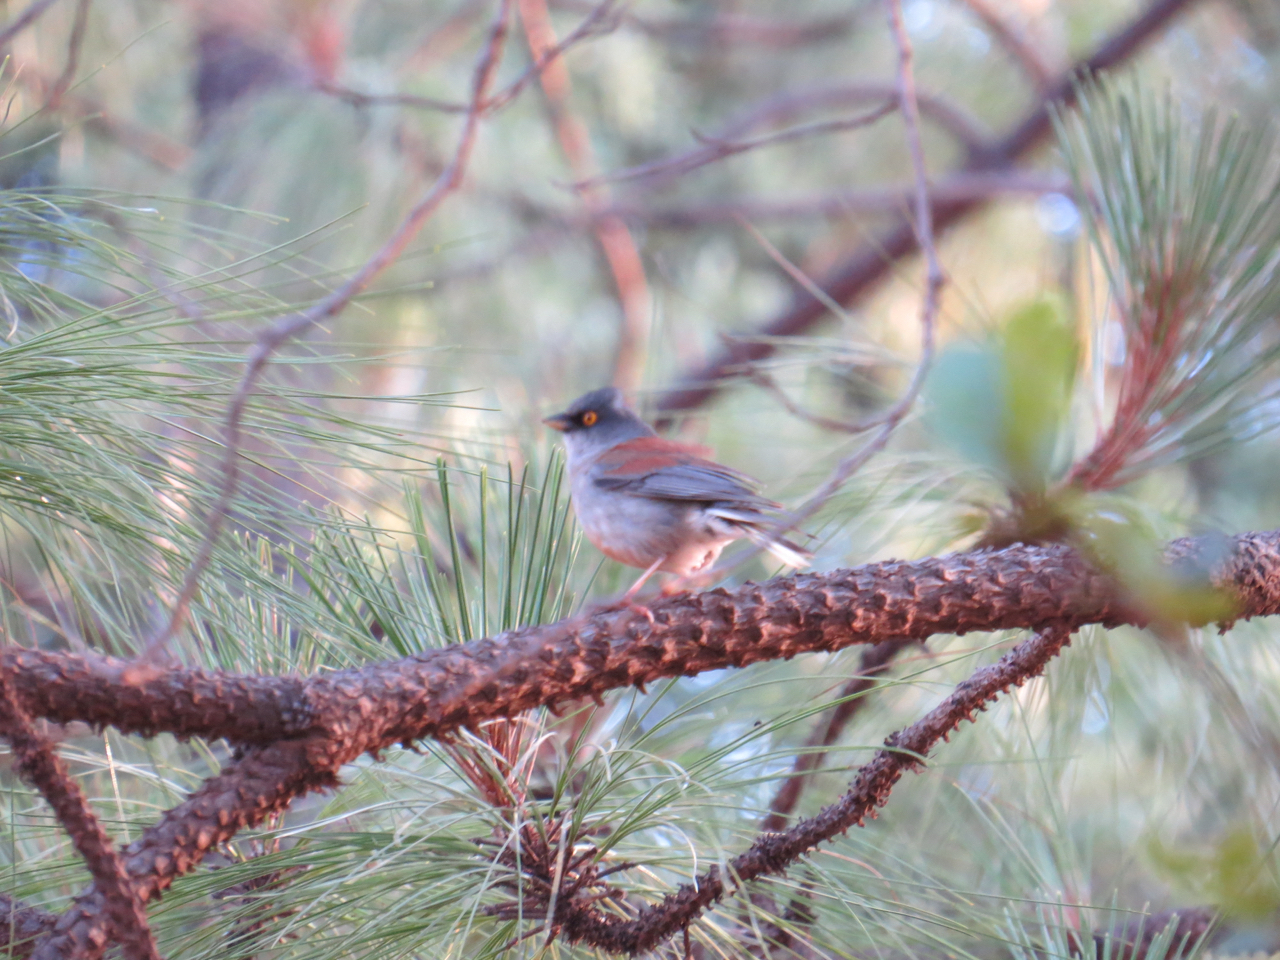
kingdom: Animalia
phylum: Chordata
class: Aves
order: Passeriformes
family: Passerellidae
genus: Junco
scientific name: Junco phaeonotus
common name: Yellow-eyed junco
